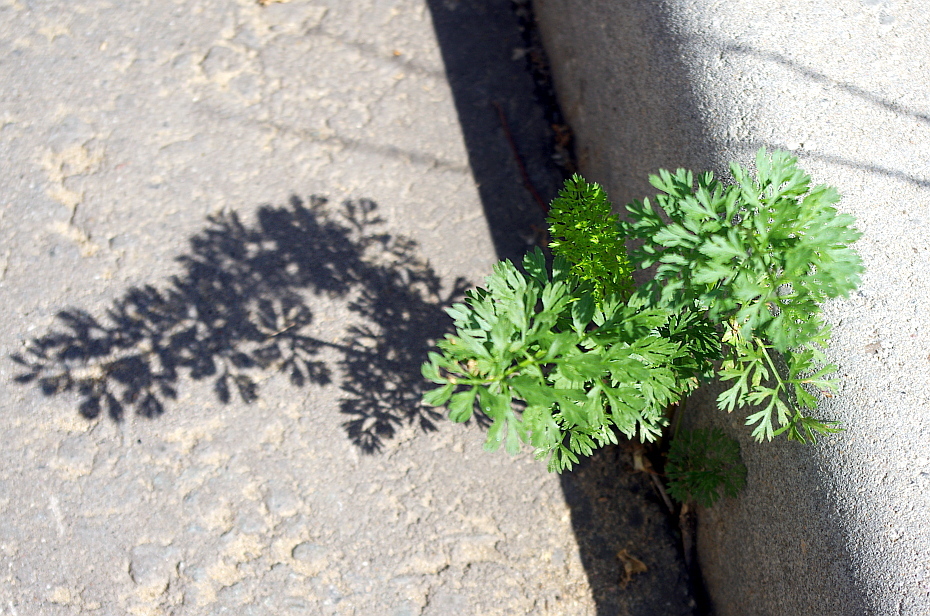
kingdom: Plantae
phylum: Tracheophyta
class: Magnoliopsida
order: Apiales
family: Apiaceae
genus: Coriandrum
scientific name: Coriandrum sativum
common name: Coriander
